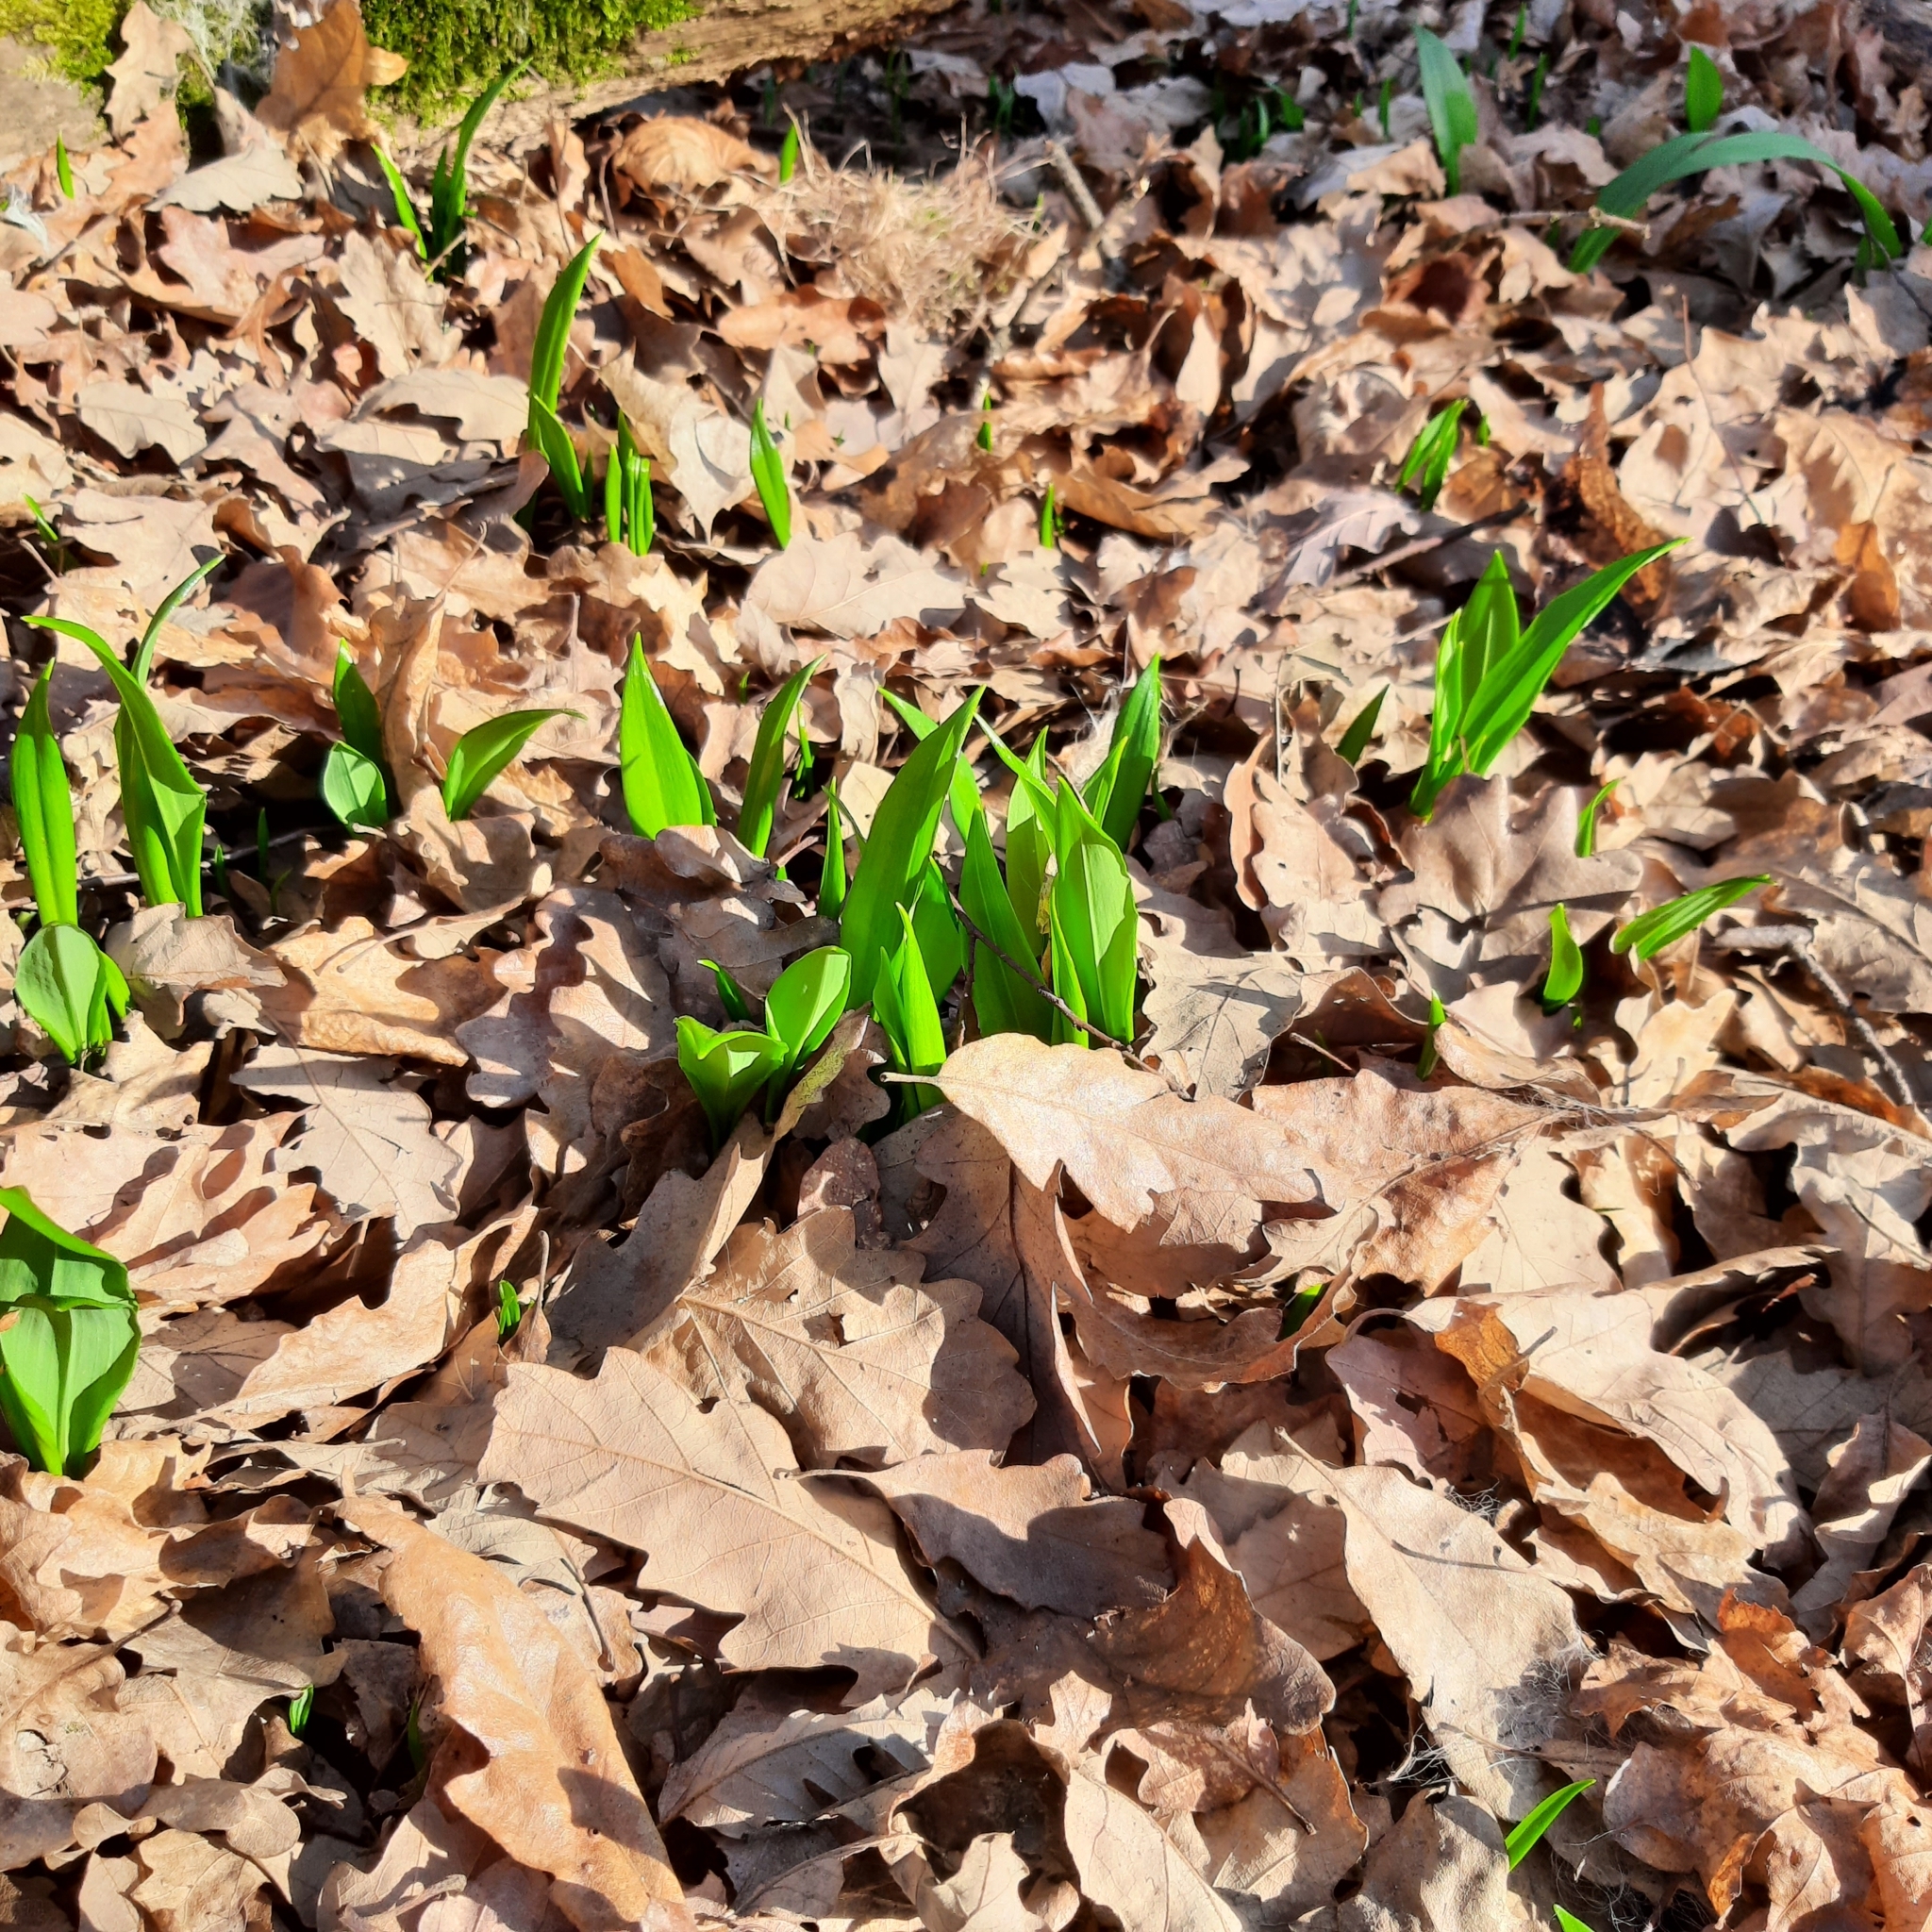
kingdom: Plantae
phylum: Tracheophyta
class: Liliopsida
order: Asparagales
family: Amaryllidaceae
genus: Allium
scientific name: Allium ursinum
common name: Ramsons
